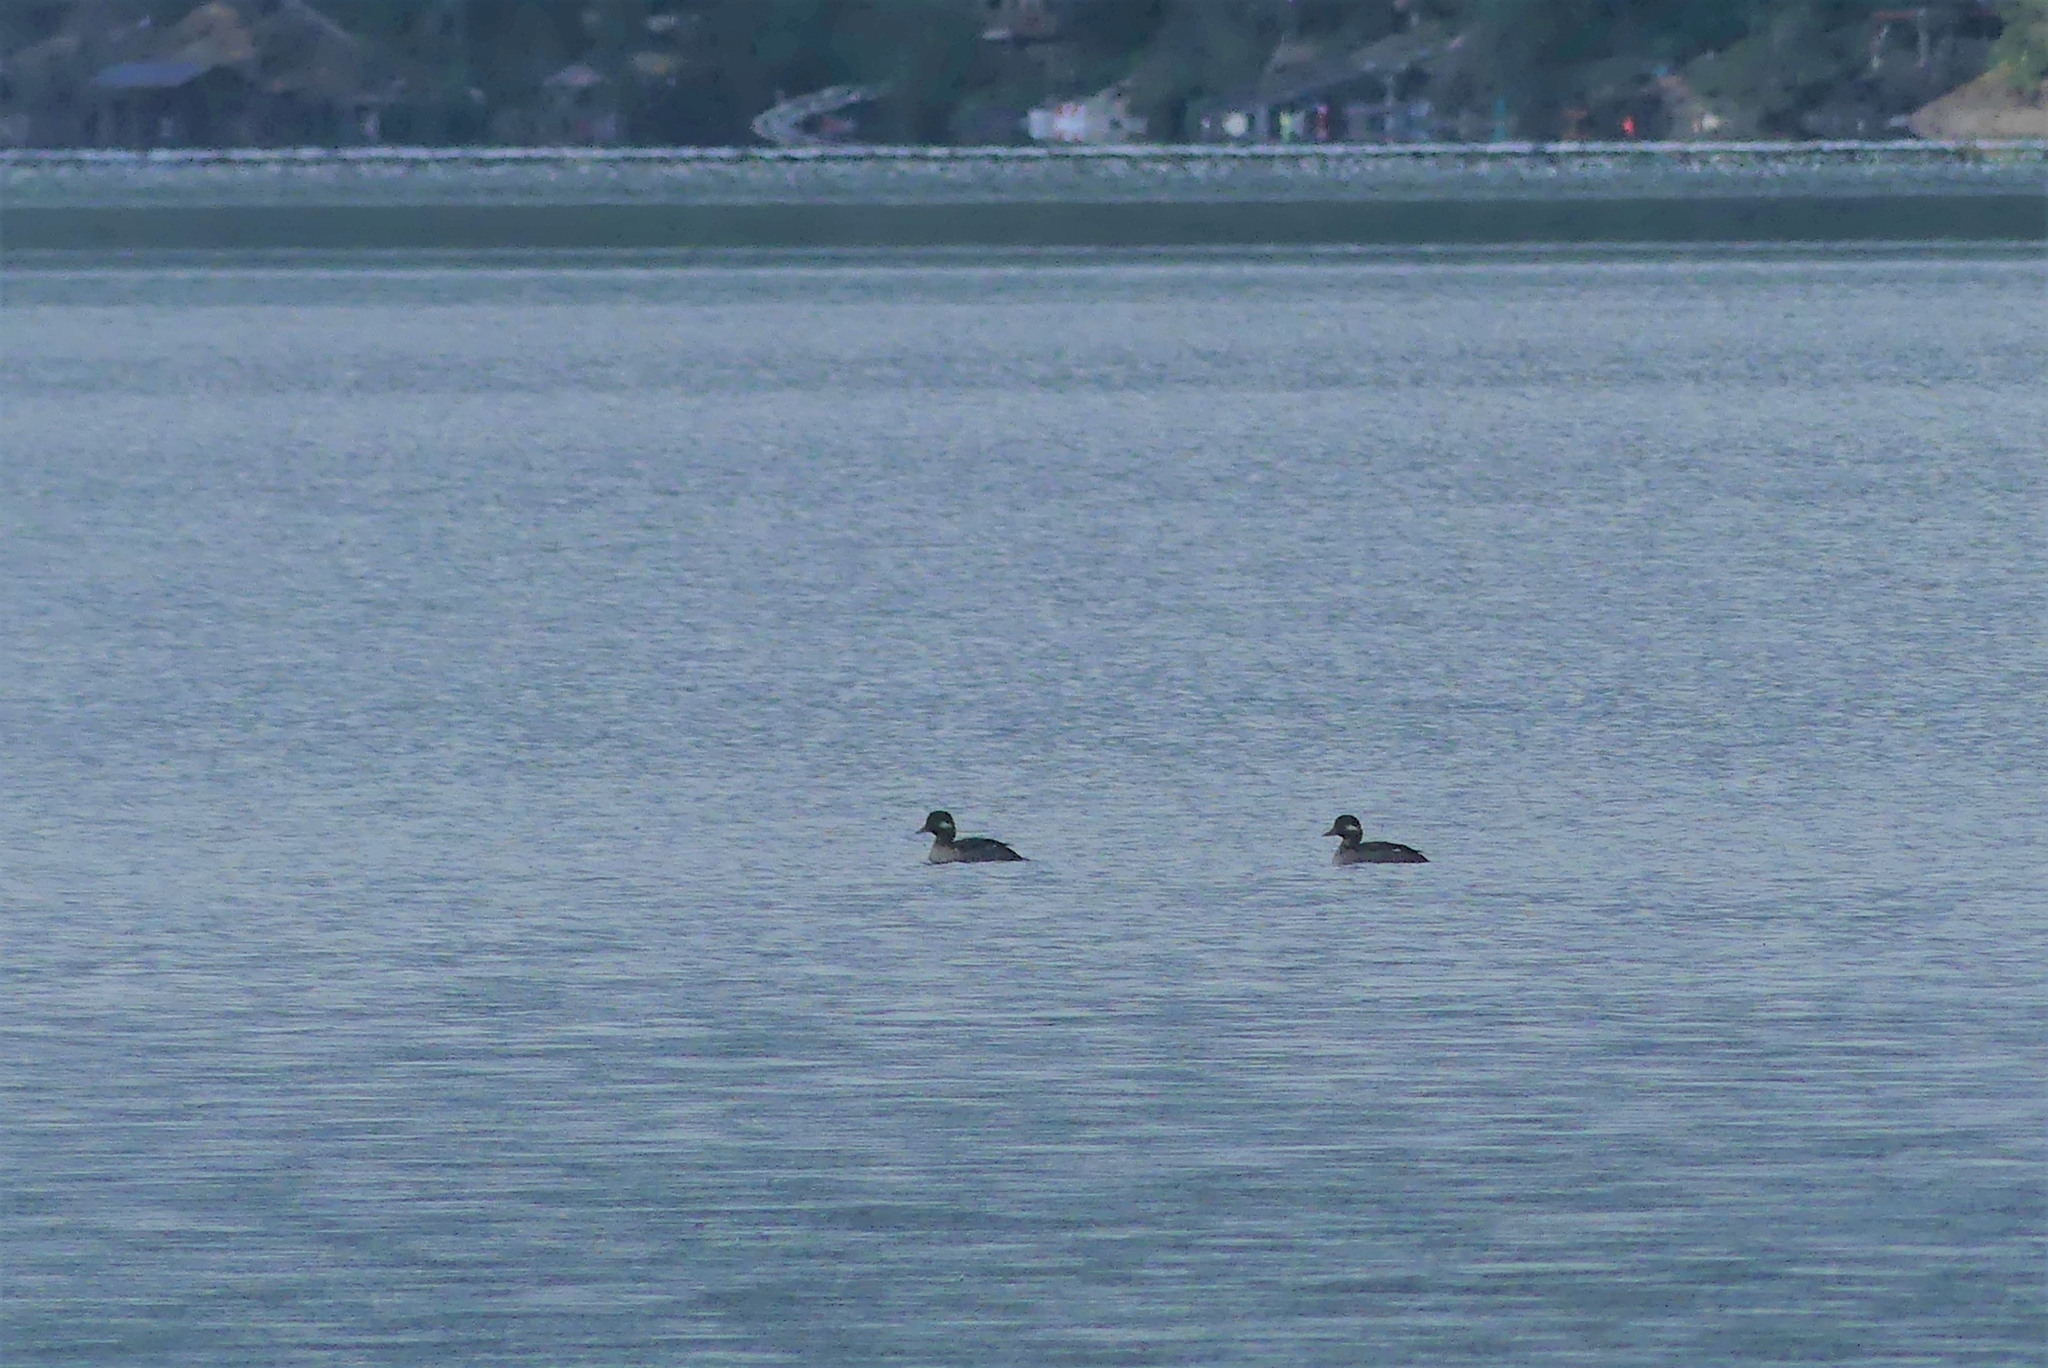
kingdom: Animalia
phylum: Chordata
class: Aves
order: Anseriformes
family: Anatidae
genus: Bucephala
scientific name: Bucephala albeola
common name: Bufflehead
